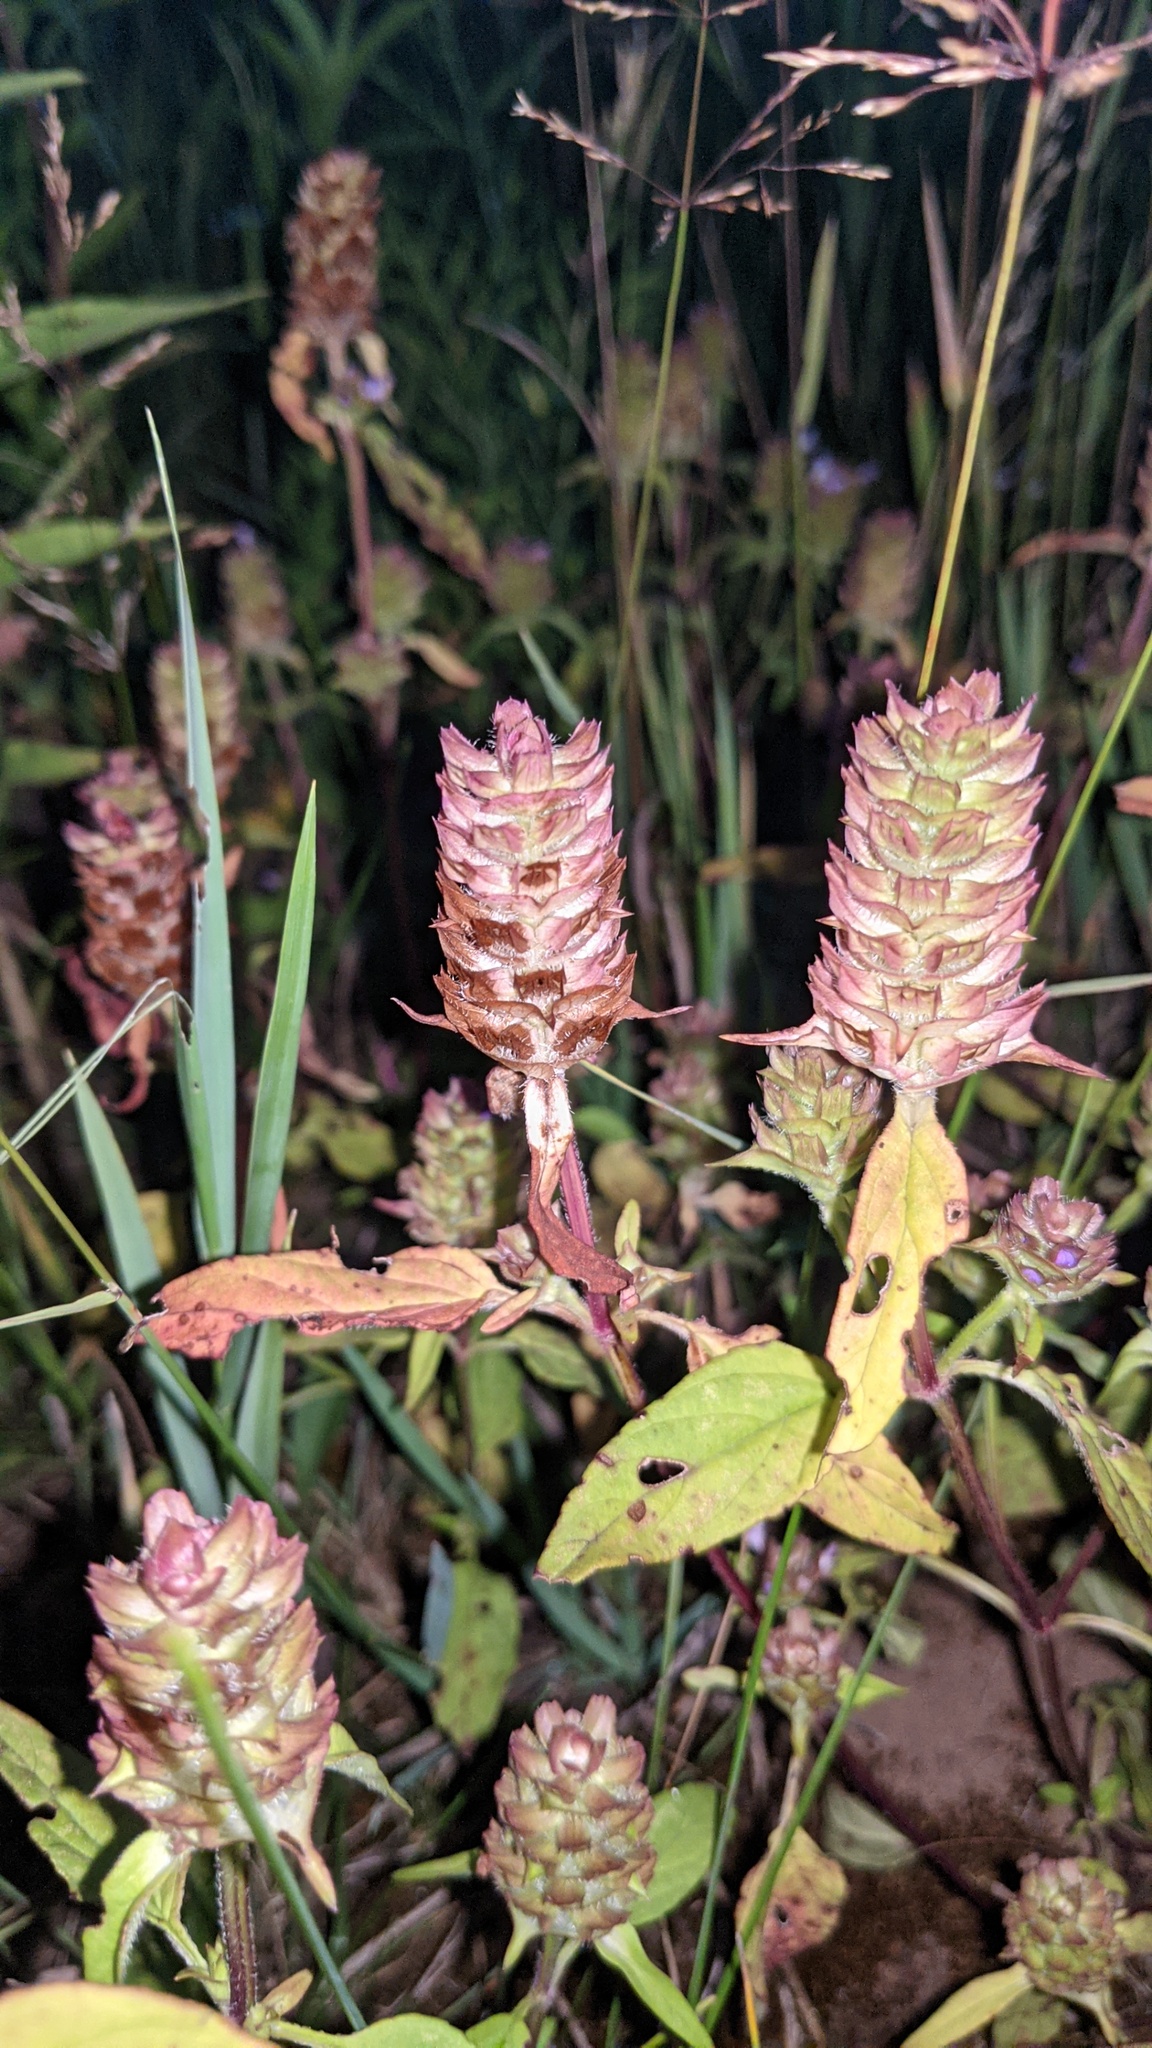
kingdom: Plantae
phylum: Tracheophyta
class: Magnoliopsida
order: Lamiales
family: Lamiaceae
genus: Prunella
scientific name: Prunella vulgaris
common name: Heal-all
